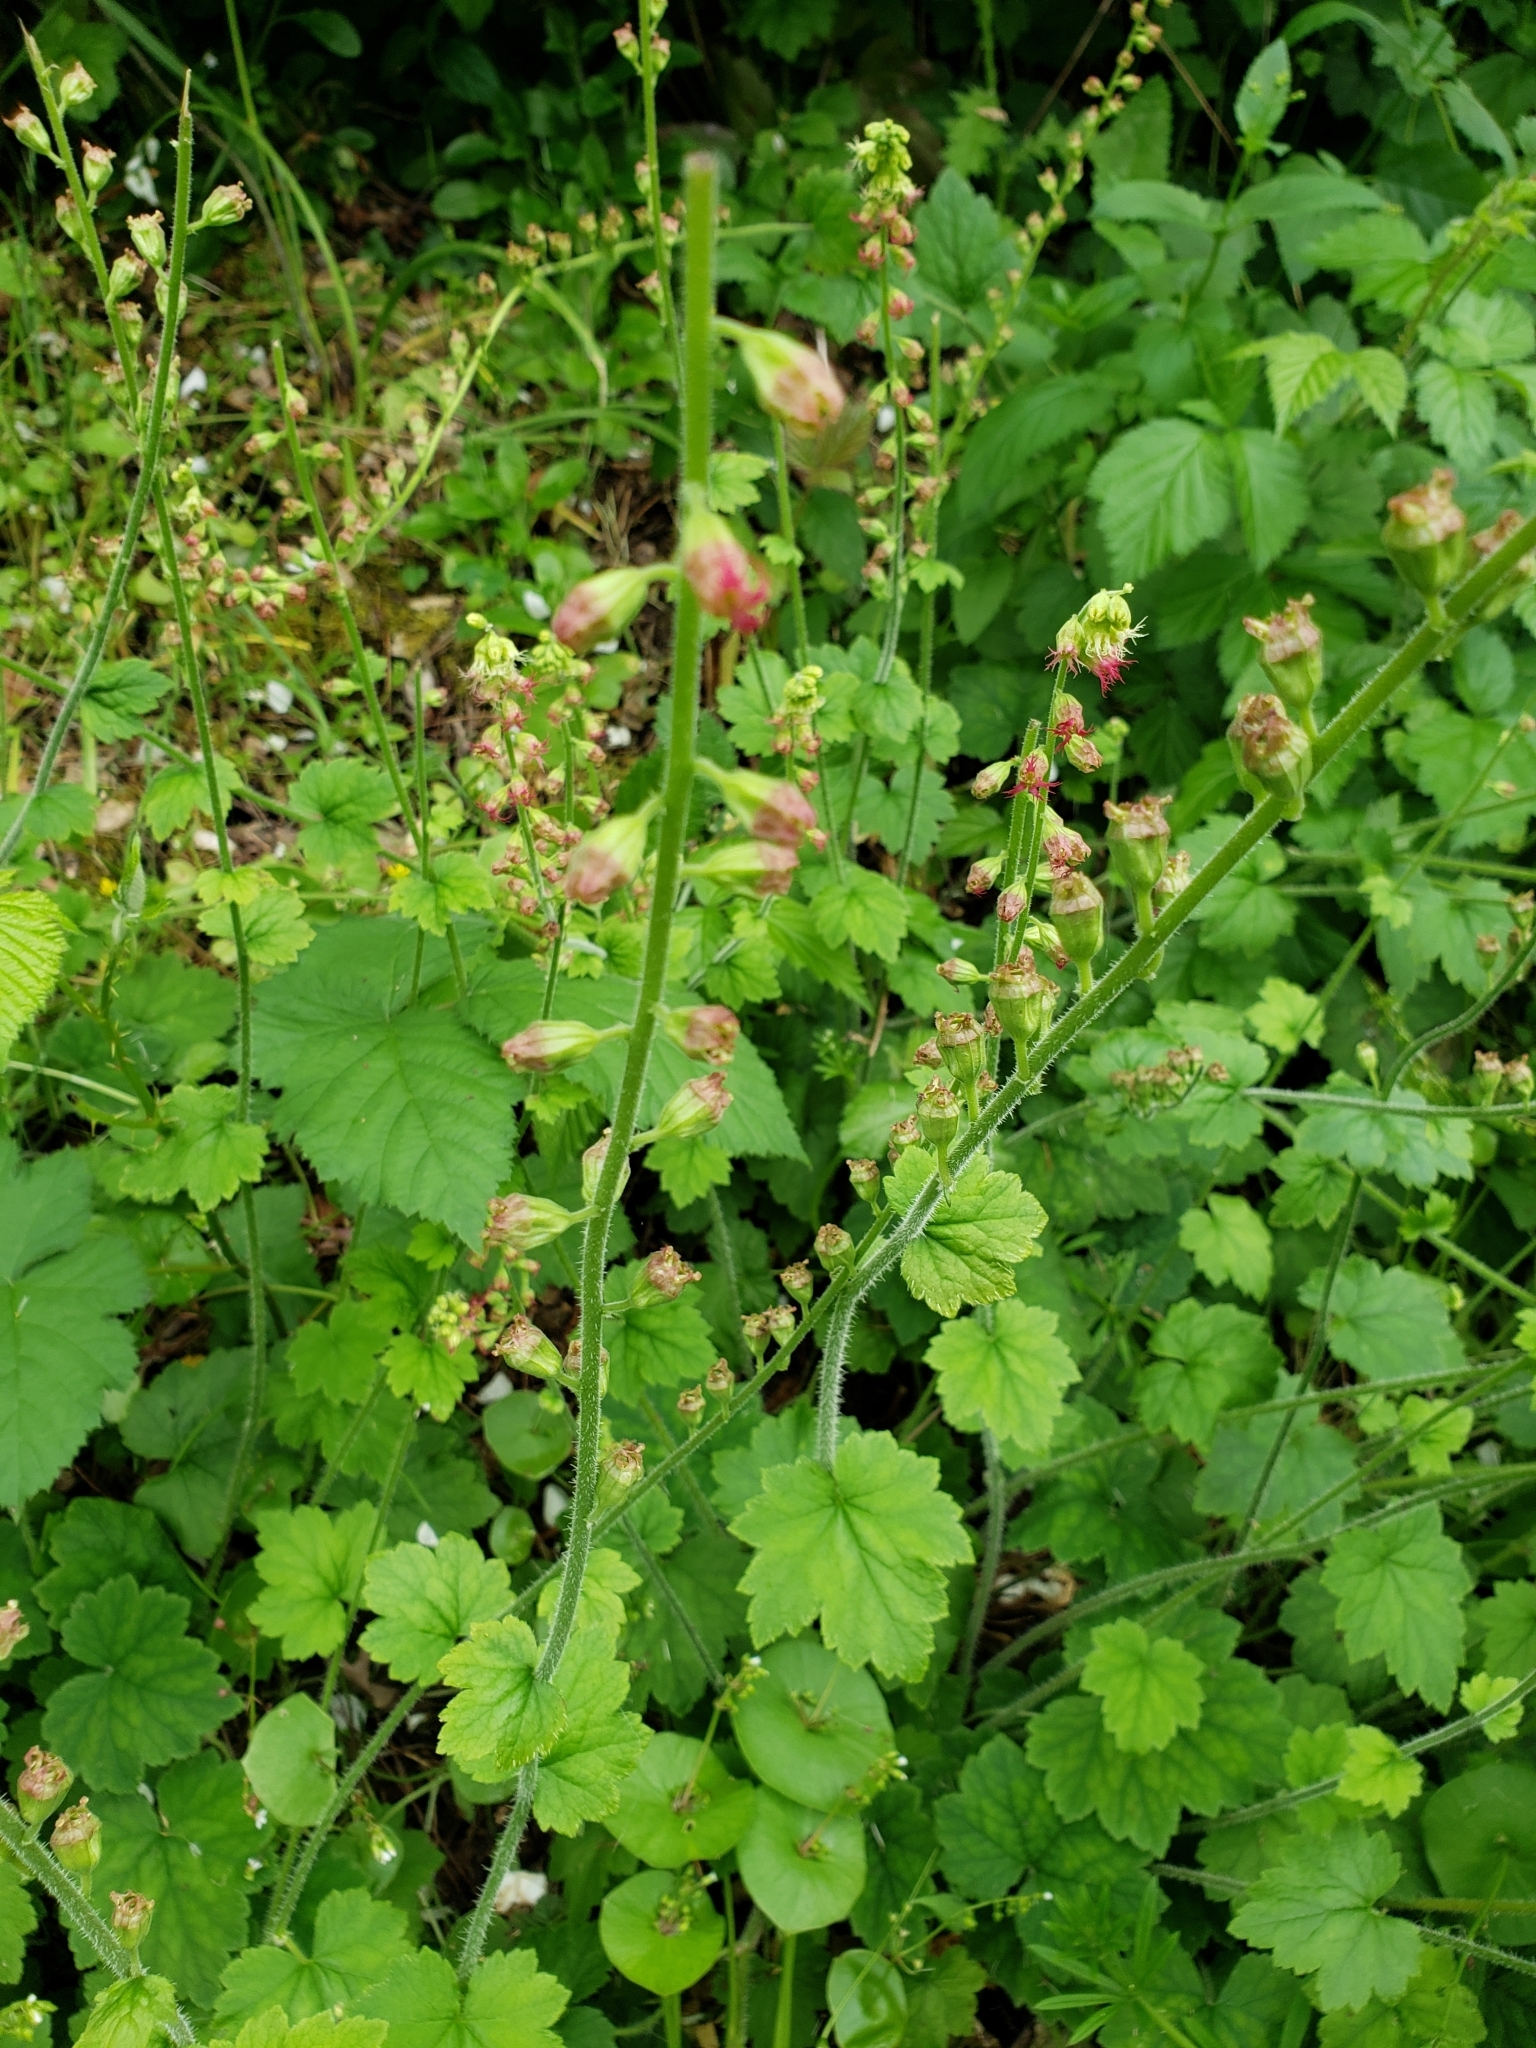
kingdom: Plantae
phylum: Tracheophyta
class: Magnoliopsida
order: Saxifragales
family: Saxifragaceae
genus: Tellima
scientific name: Tellima grandiflora
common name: Fringecups
